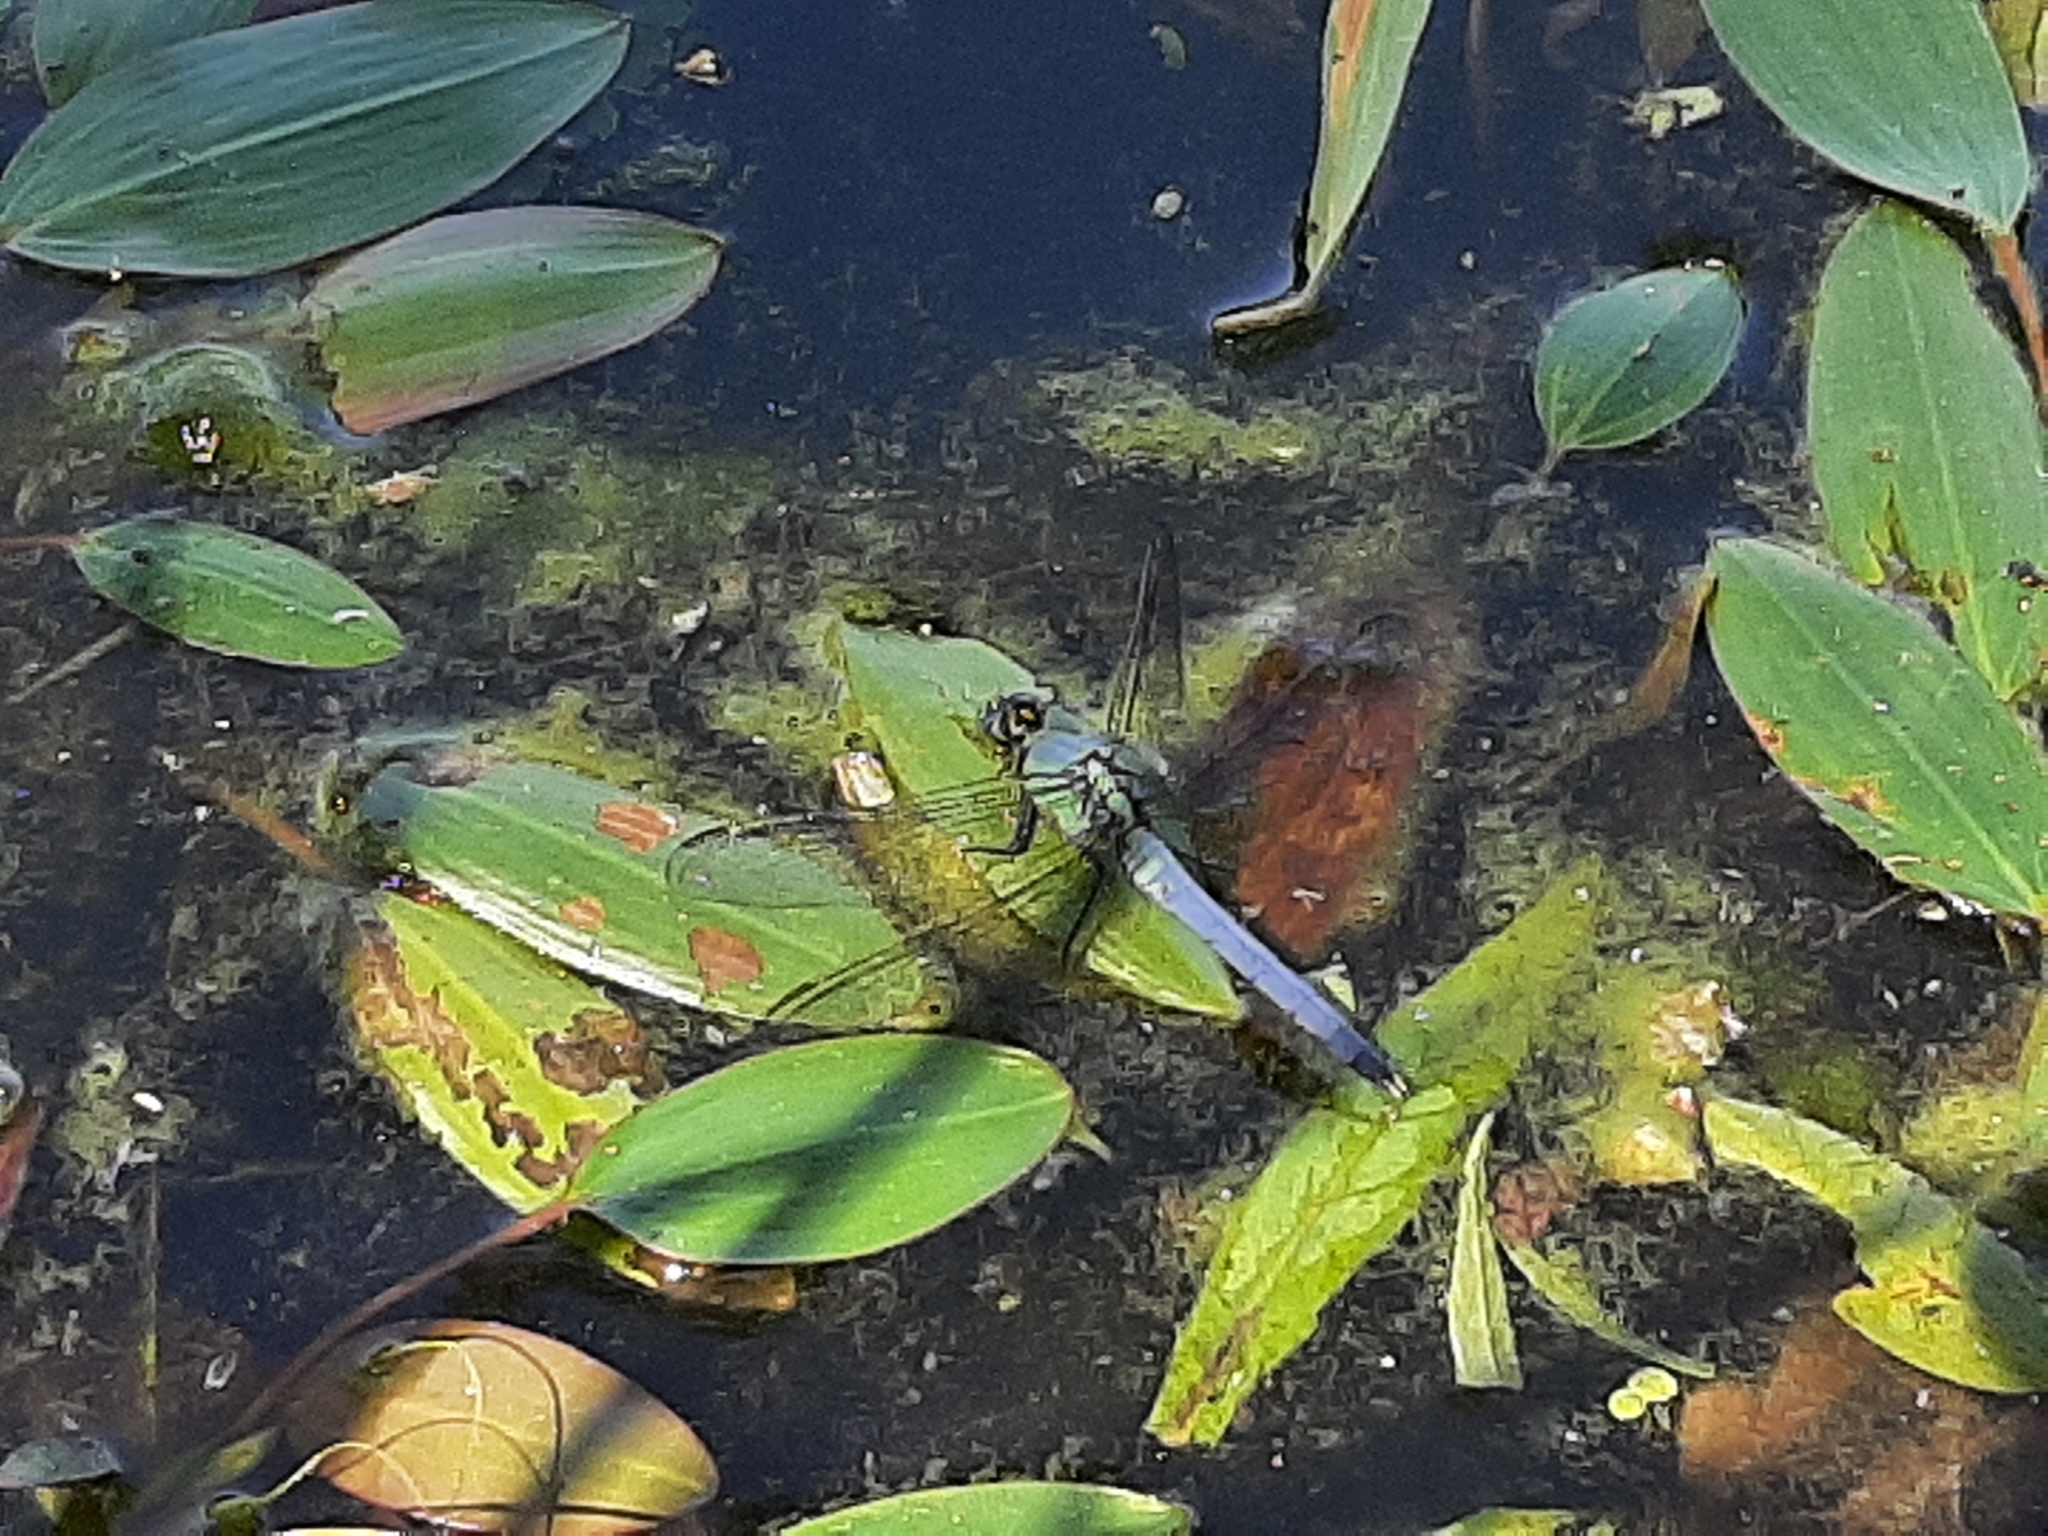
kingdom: Animalia
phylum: Arthropoda
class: Insecta
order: Odonata
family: Libellulidae
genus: Erythemis
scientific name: Erythemis simplicicollis
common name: Eastern pondhawk
